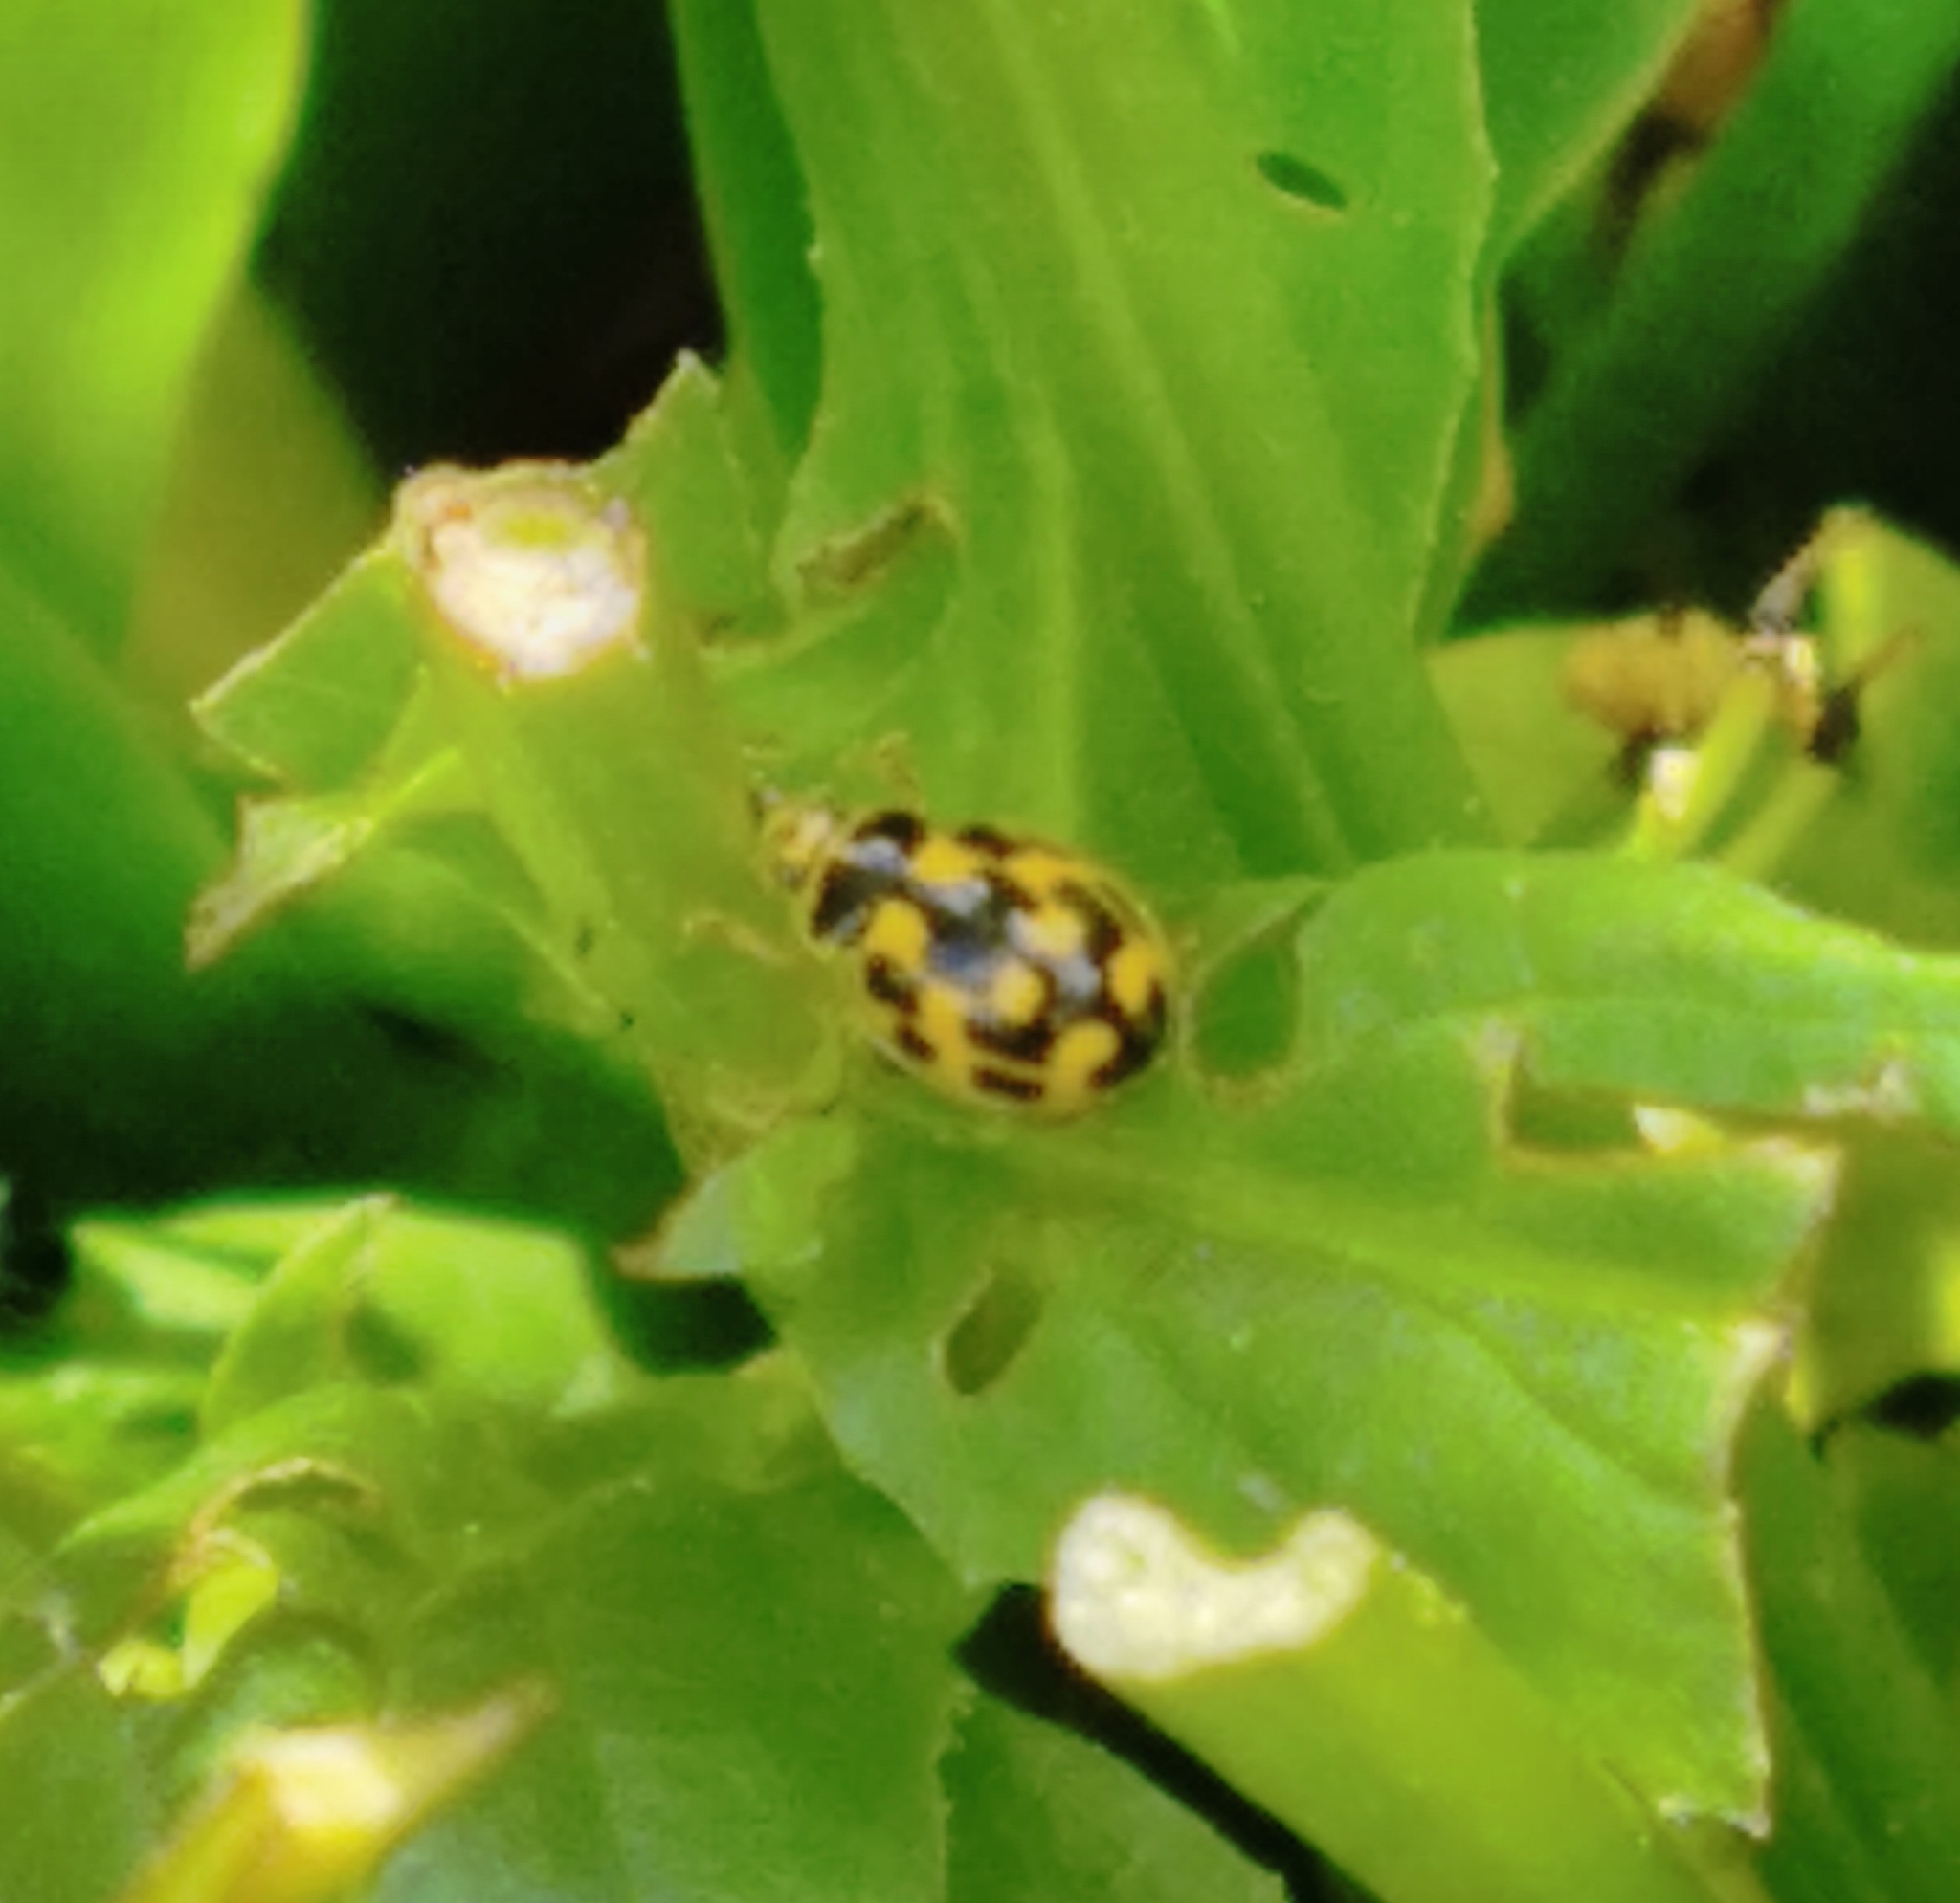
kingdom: Animalia
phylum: Arthropoda
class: Insecta
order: Coleoptera
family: Coccinellidae
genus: Propylaea
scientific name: Propylaea quatuordecimpunctata
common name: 14-spotted ladybird beetle
